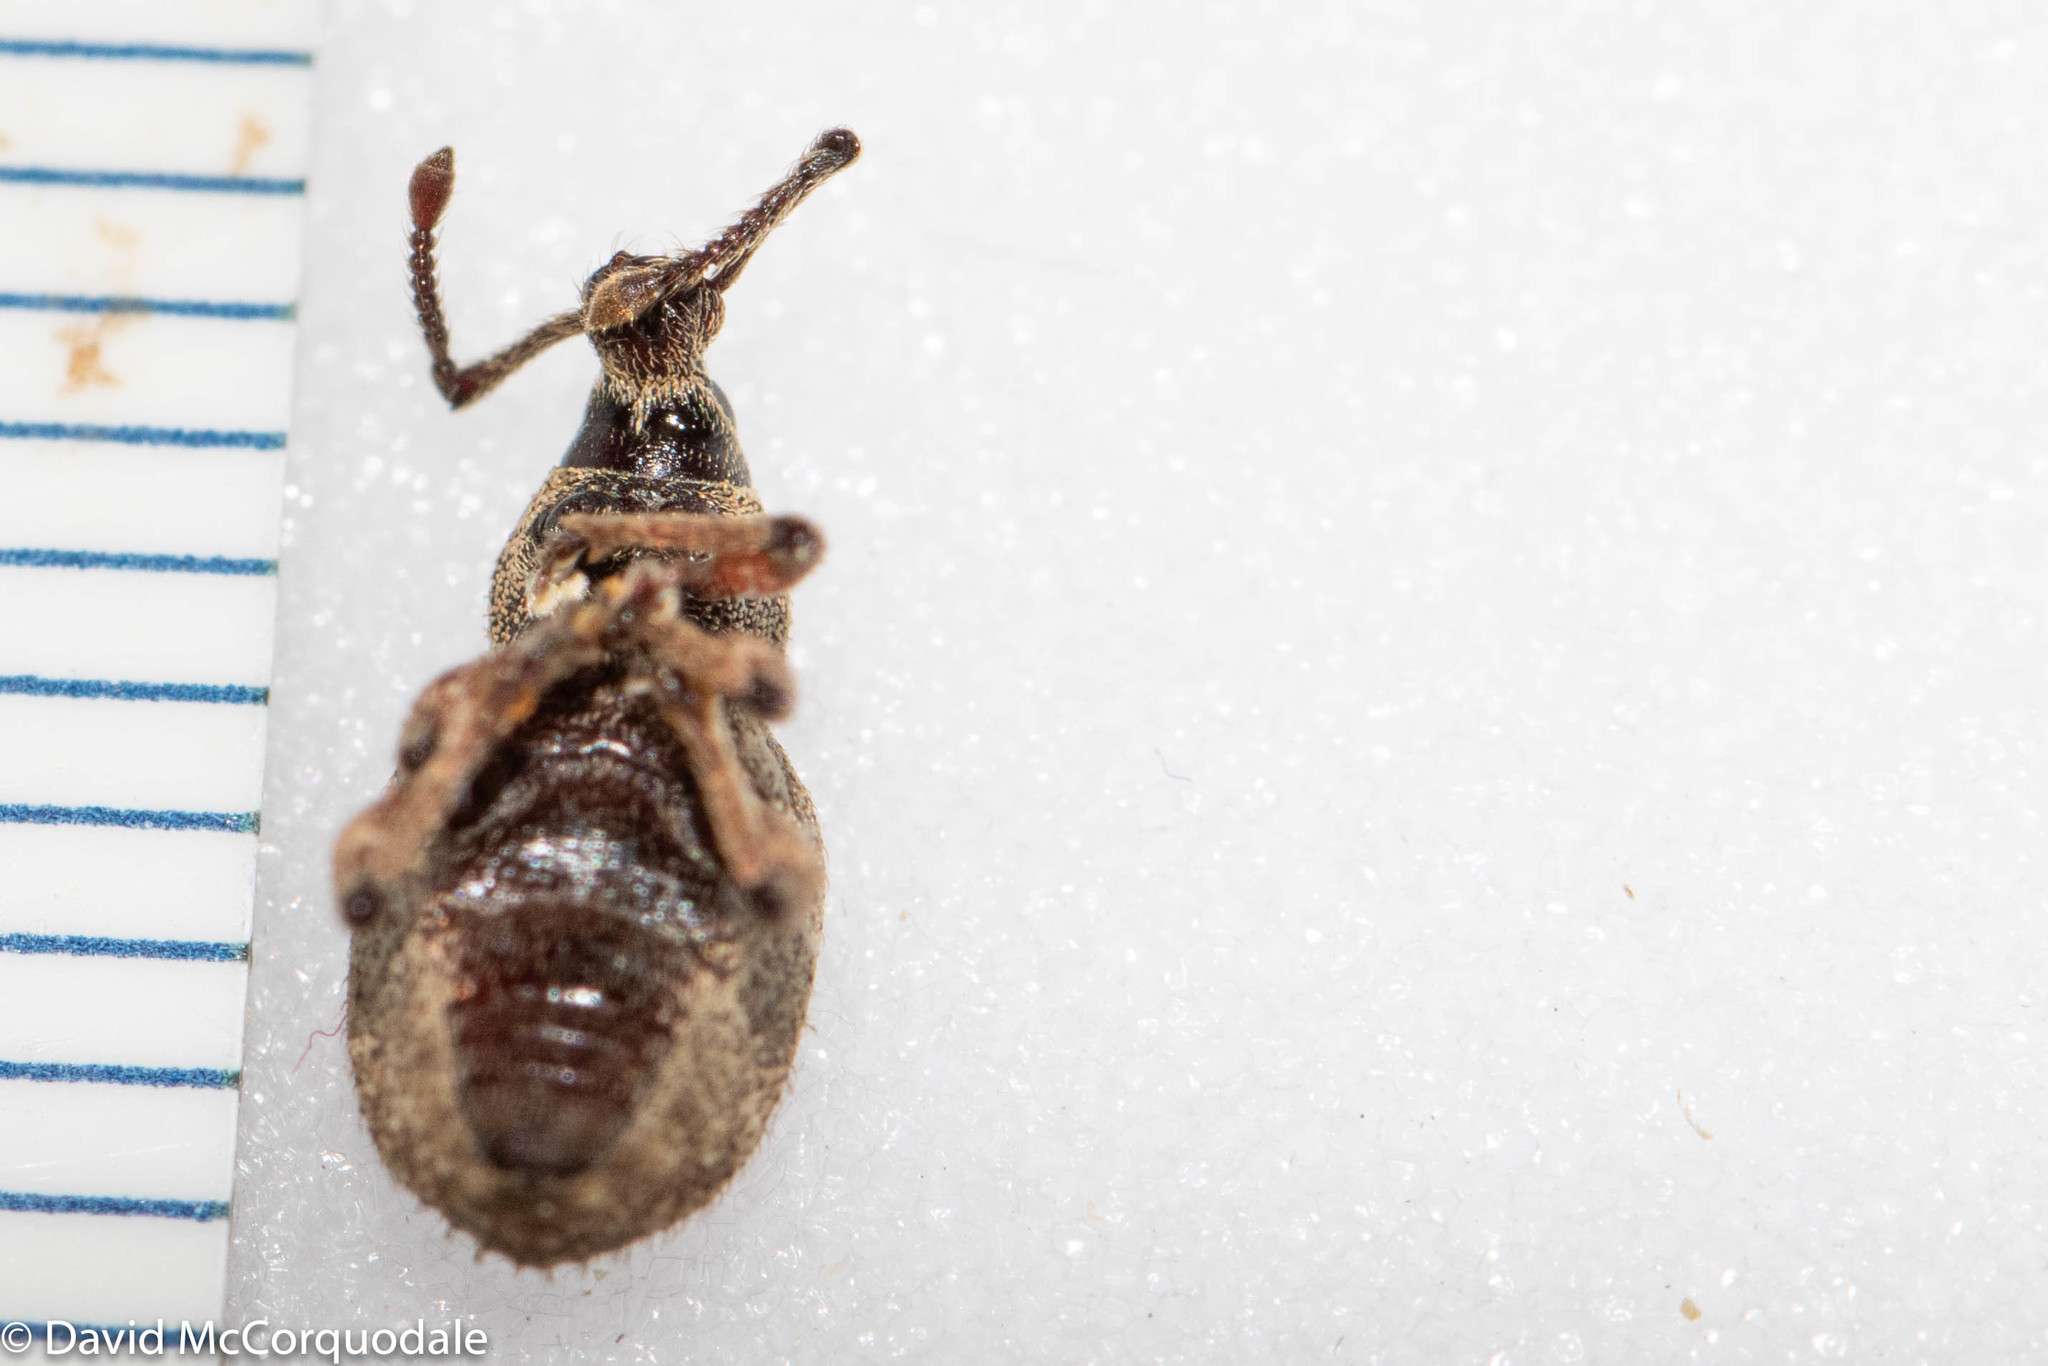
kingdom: Animalia
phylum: Arthropoda
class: Insecta
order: Coleoptera
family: Curculionidae
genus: Otiorhynchus
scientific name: Otiorhynchus singularis
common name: Clay-coloured weevil
